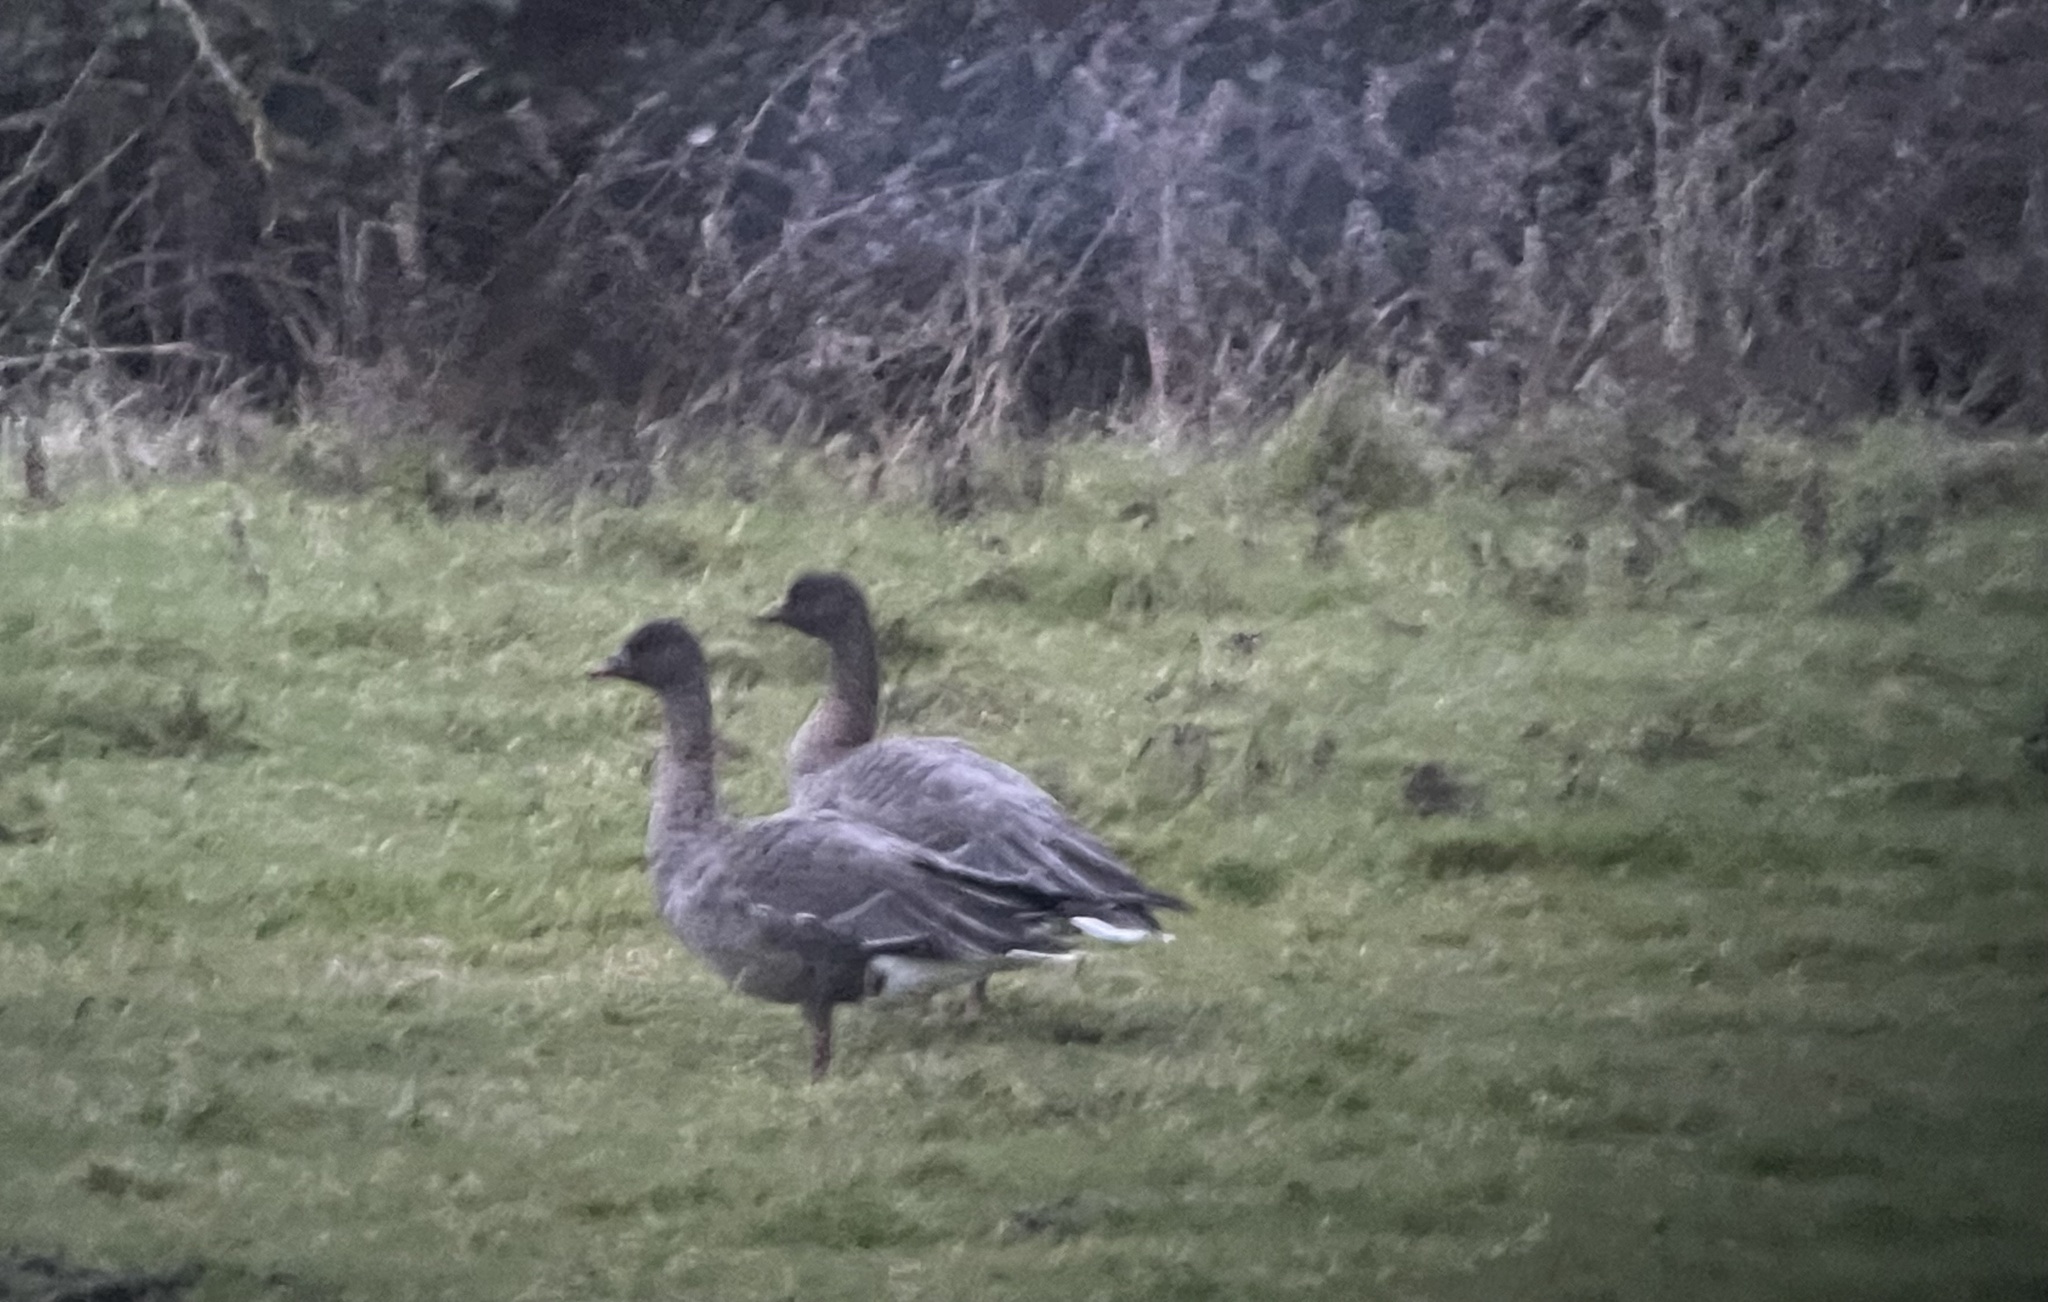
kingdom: Animalia
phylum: Chordata
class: Aves
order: Anseriformes
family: Anatidae
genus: Anser
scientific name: Anser brachyrhynchus
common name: Pink-footed goose
